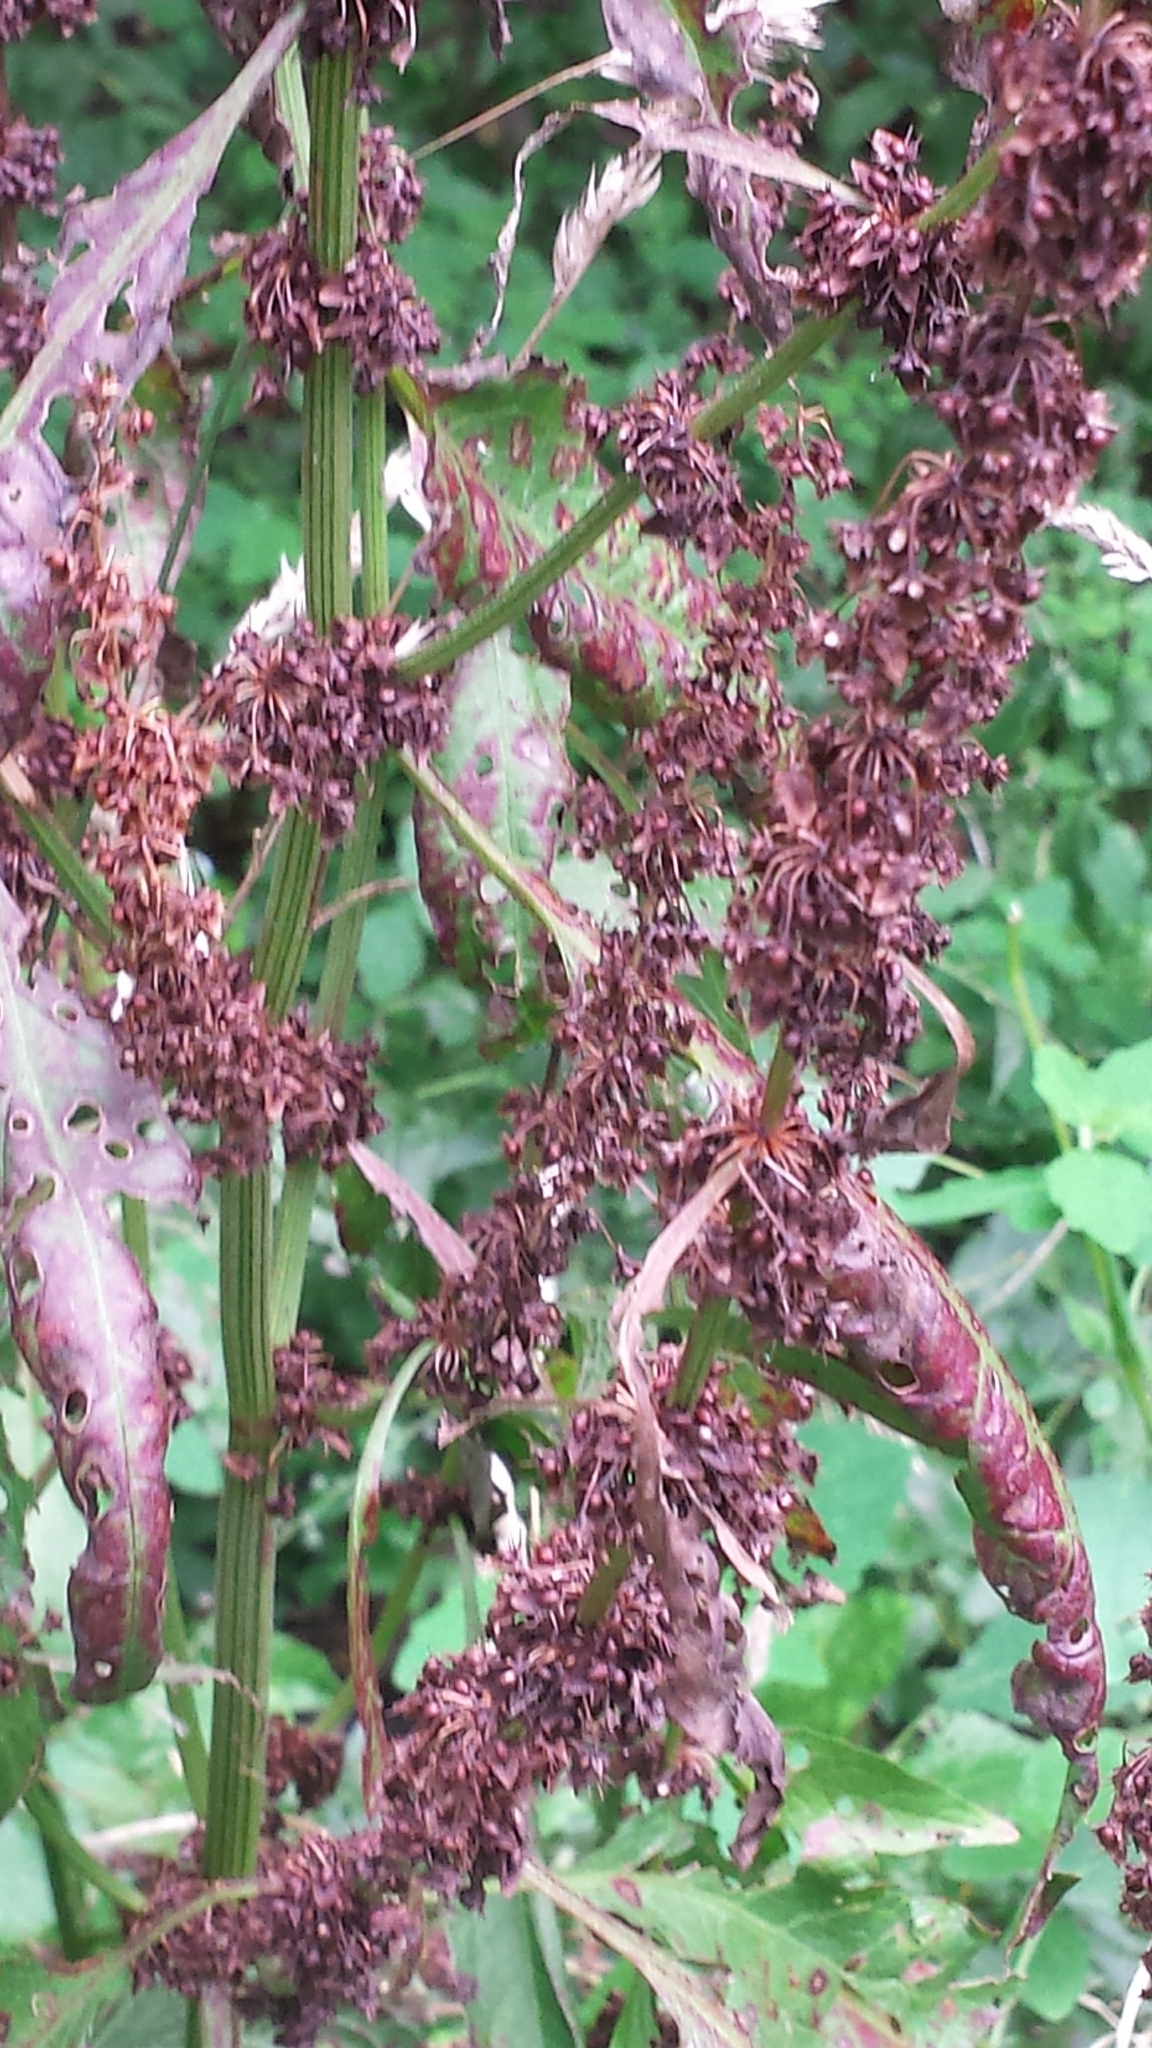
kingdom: Plantae
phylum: Tracheophyta
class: Magnoliopsida
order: Caryophyllales
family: Polygonaceae
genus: Rumex
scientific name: Rumex obtusifolius
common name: Bitter dock
